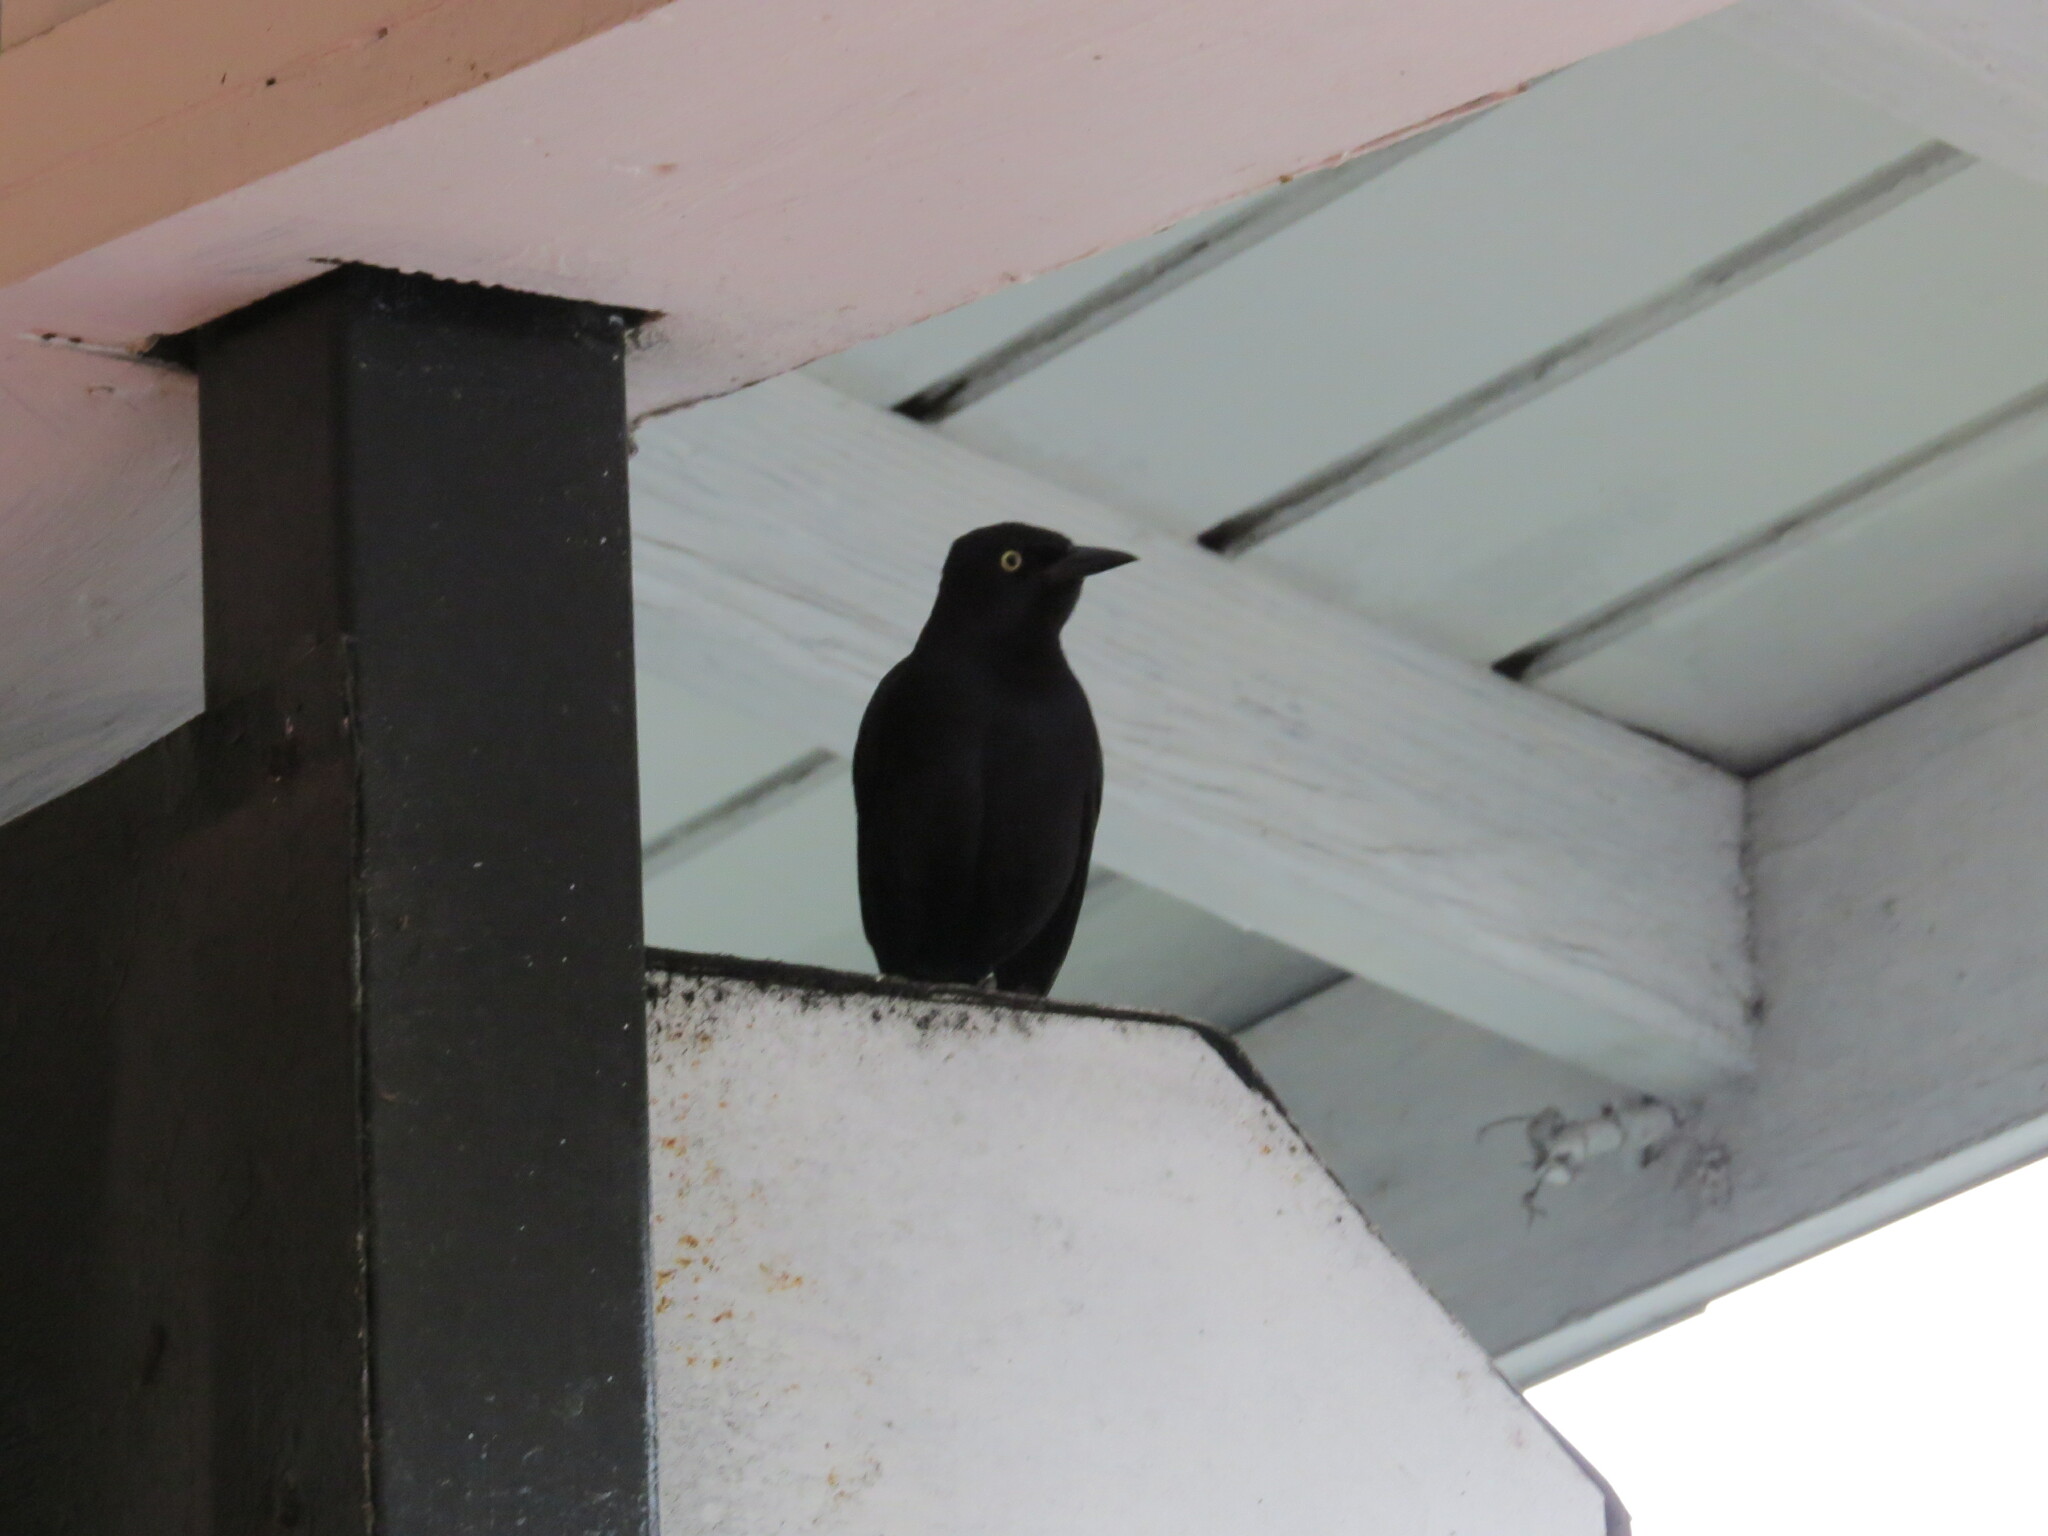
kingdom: Animalia
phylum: Chordata
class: Aves
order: Passeriformes
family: Icteridae
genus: Quiscalus
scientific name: Quiscalus niger
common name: Greater antillean grackle
